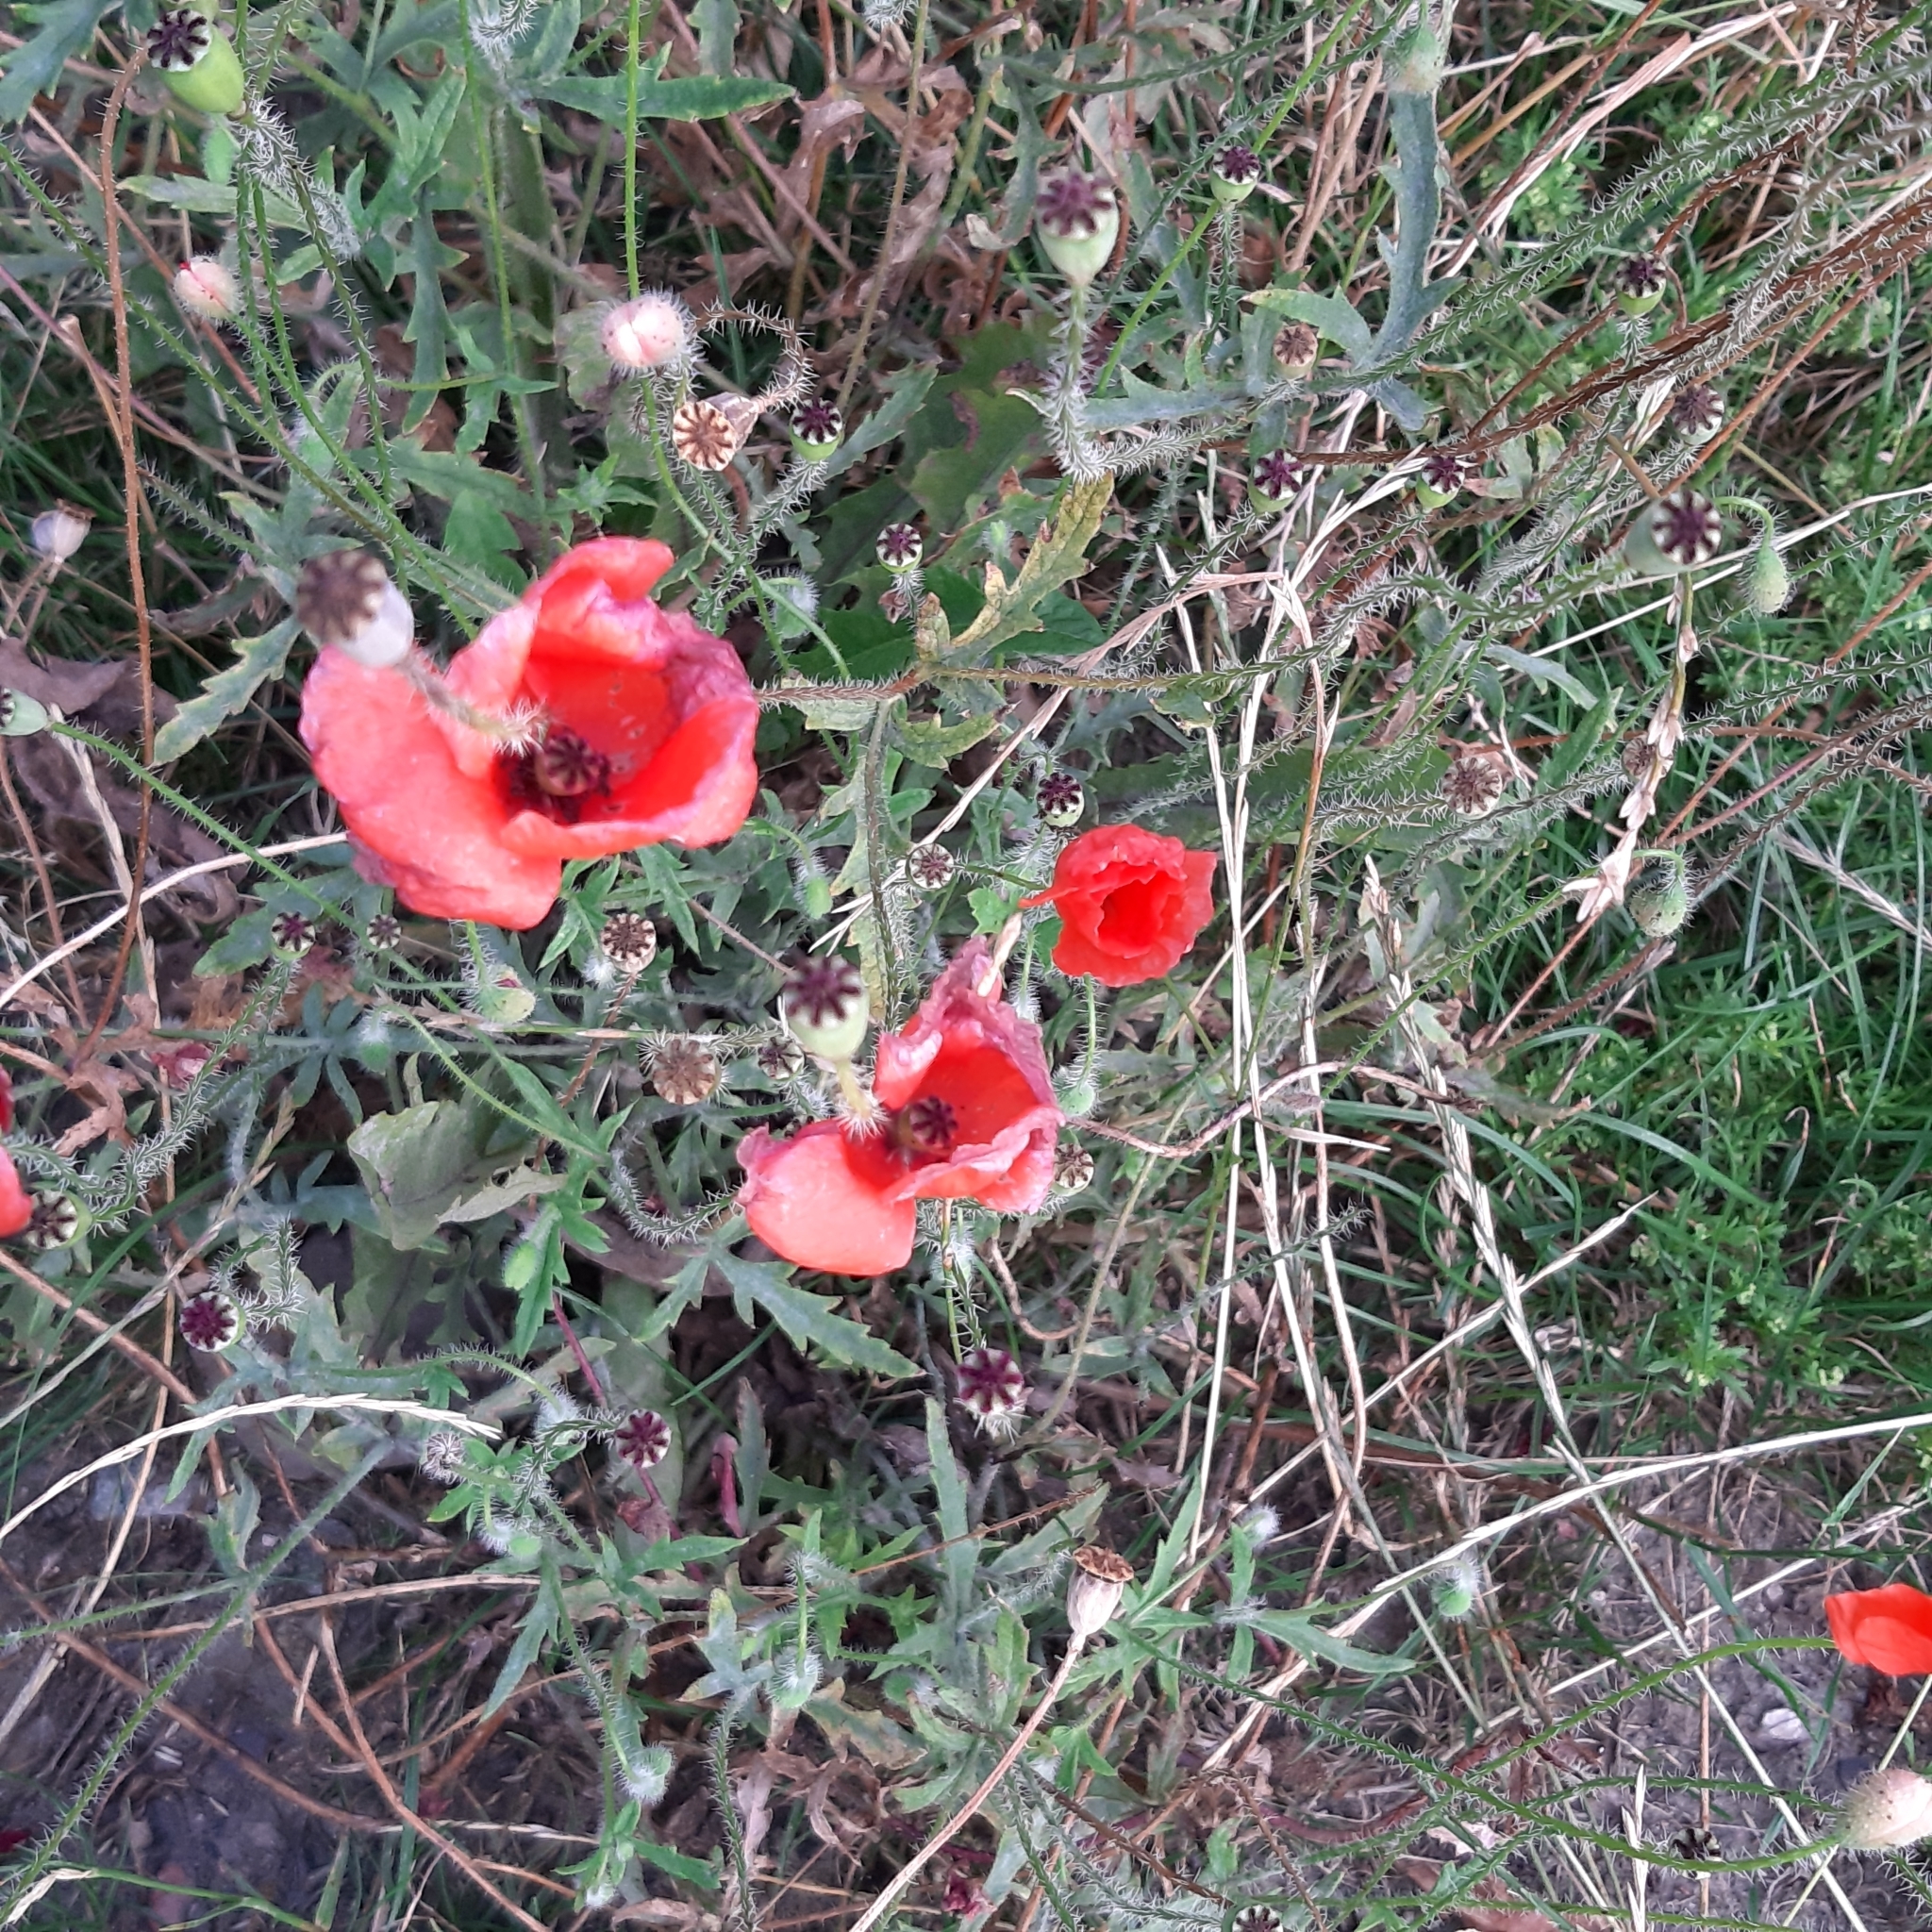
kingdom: Plantae
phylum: Tracheophyta
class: Magnoliopsida
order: Ranunculales
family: Papaveraceae
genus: Papaver
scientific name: Papaver rhoeas
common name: Corn poppy
